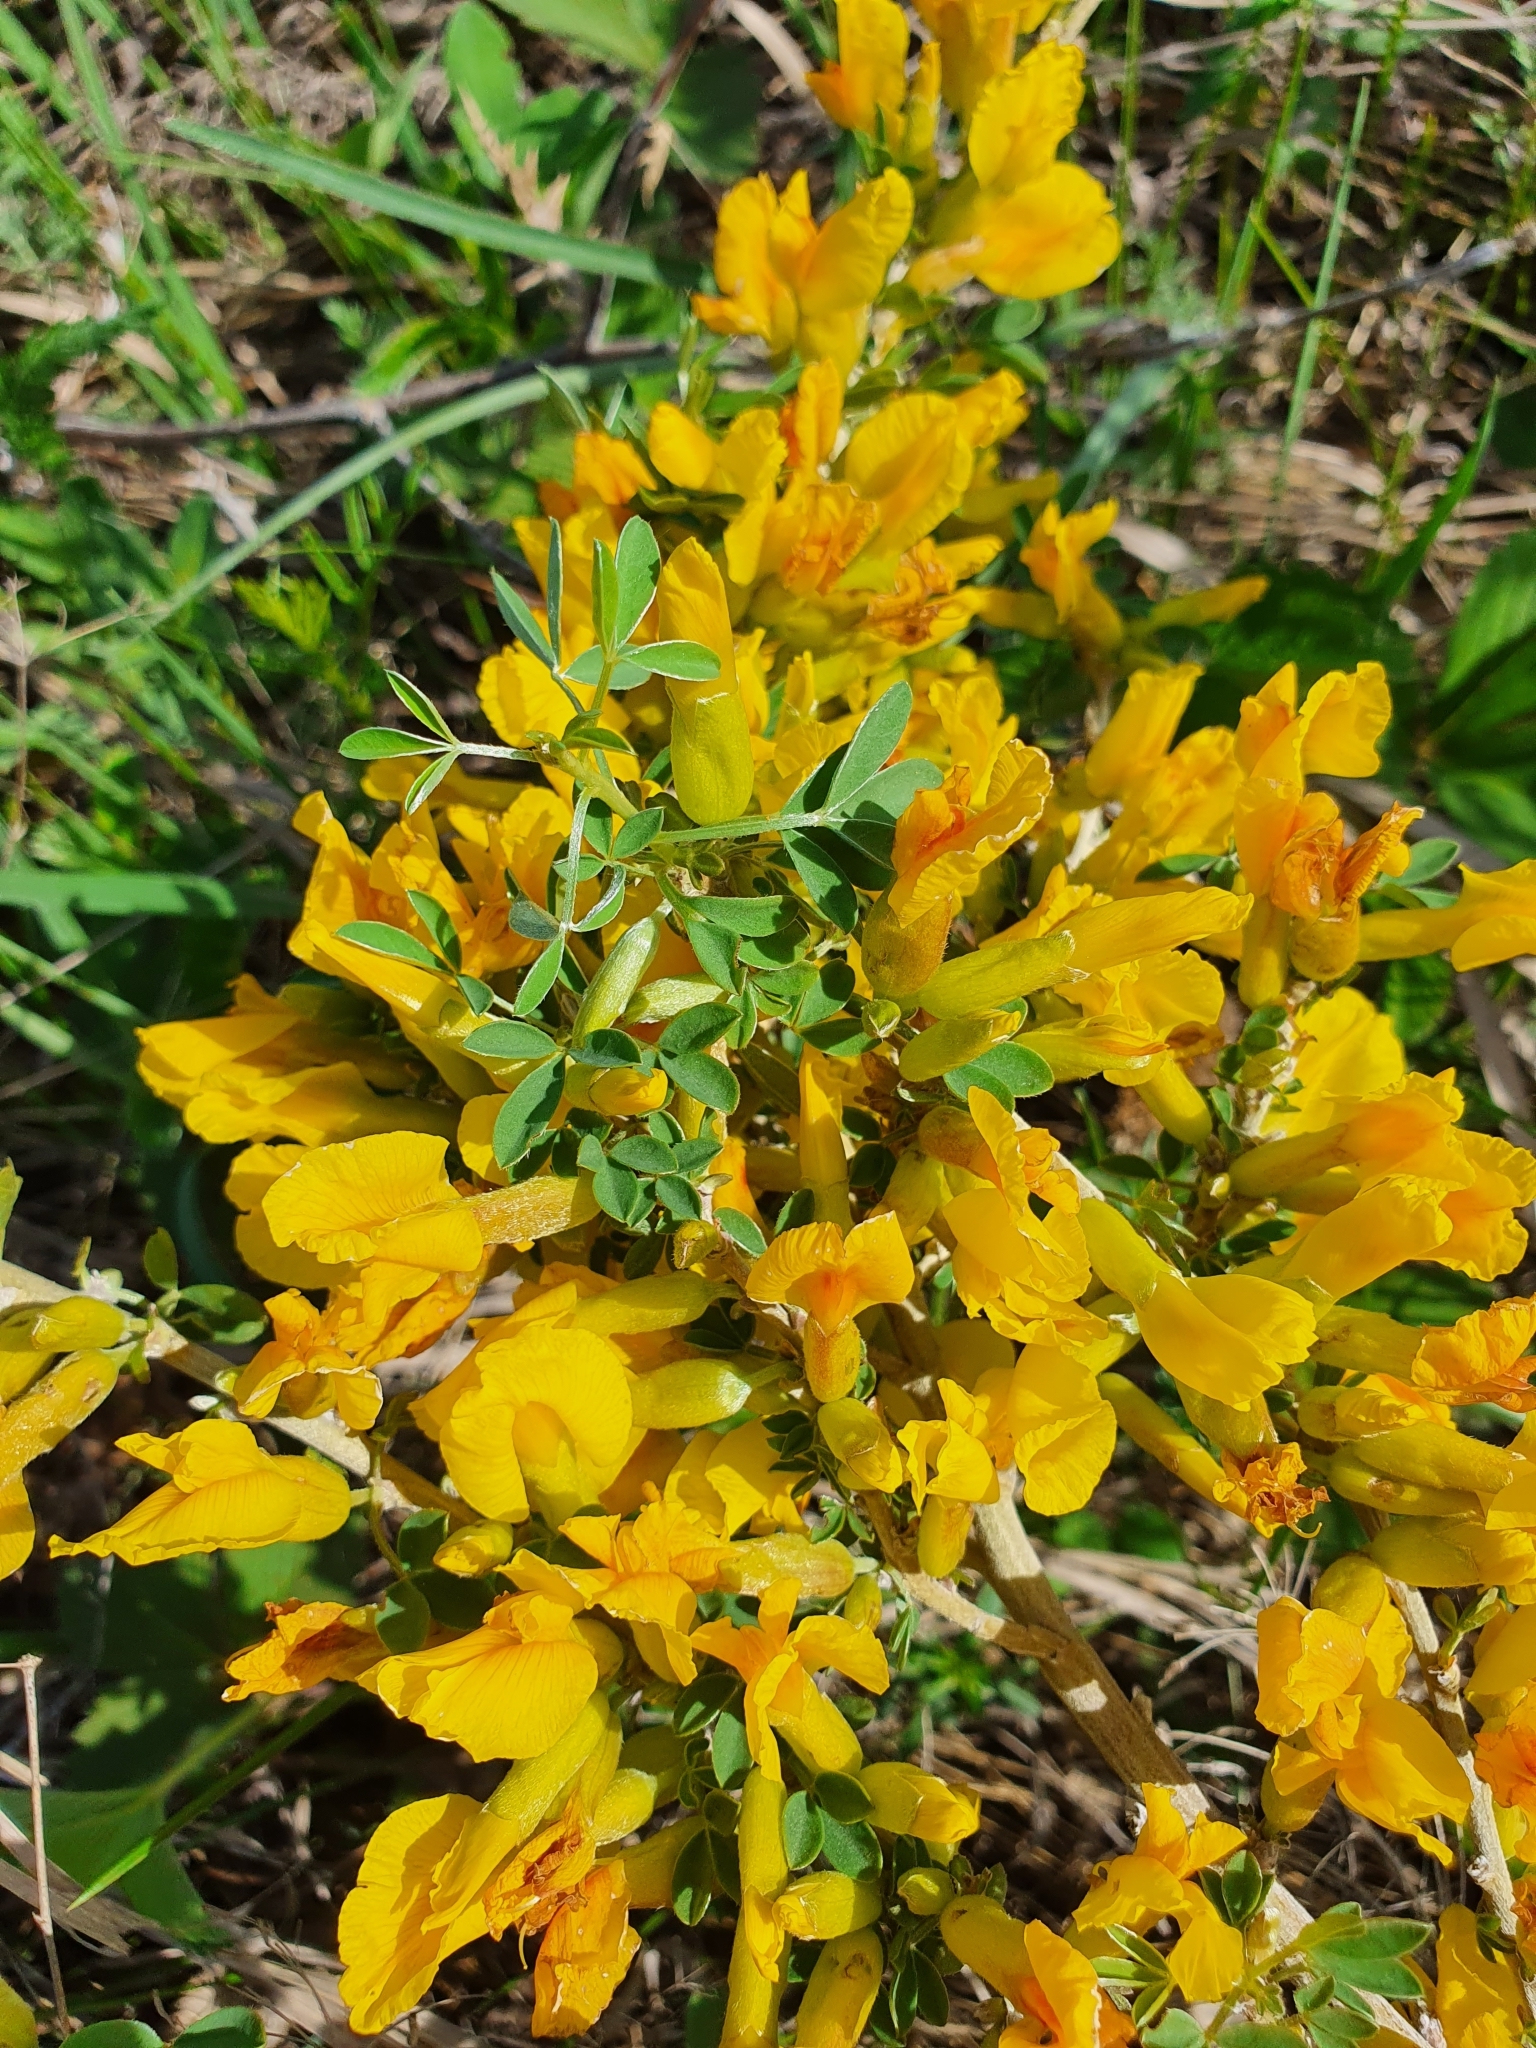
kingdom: Plantae
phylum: Tracheophyta
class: Magnoliopsida
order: Fabales
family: Fabaceae
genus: Chamaecytisus
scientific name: Chamaecytisus ruthenicus
